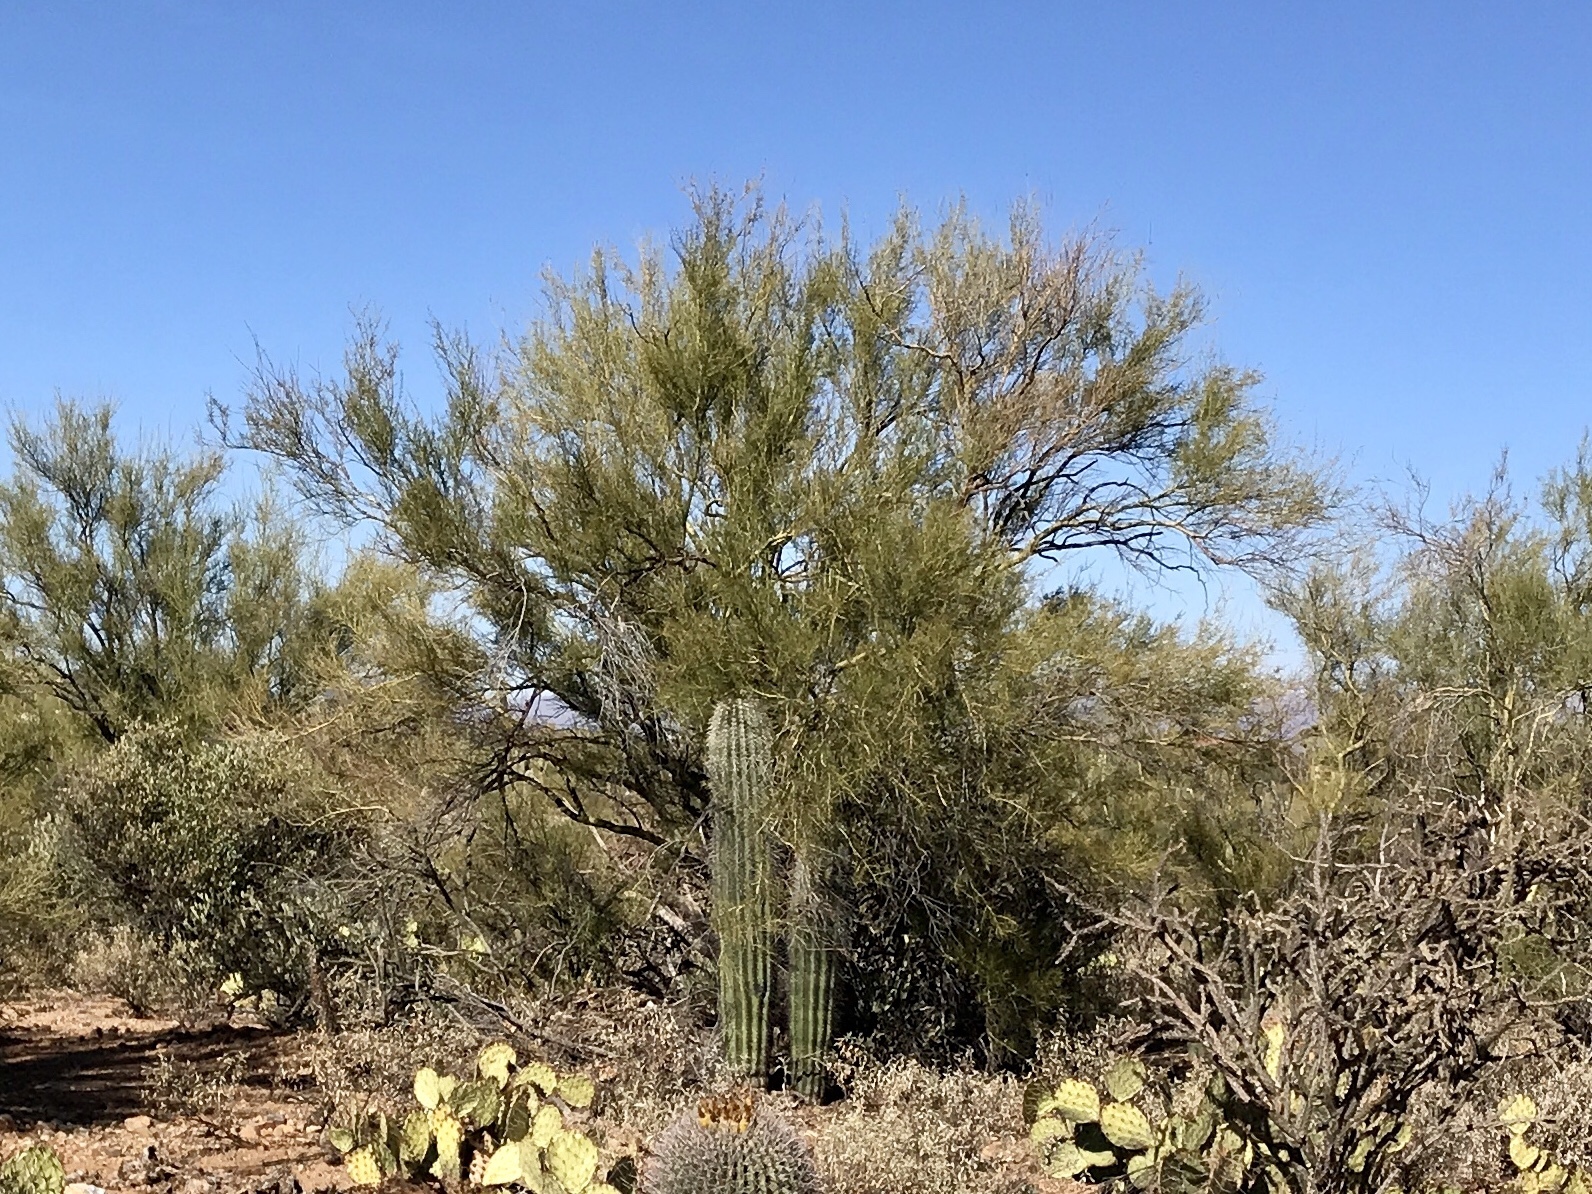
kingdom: Plantae
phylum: Tracheophyta
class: Magnoliopsida
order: Fabales
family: Fabaceae
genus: Parkinsonia
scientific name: Parkinsonia florida
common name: Blue paloverde
